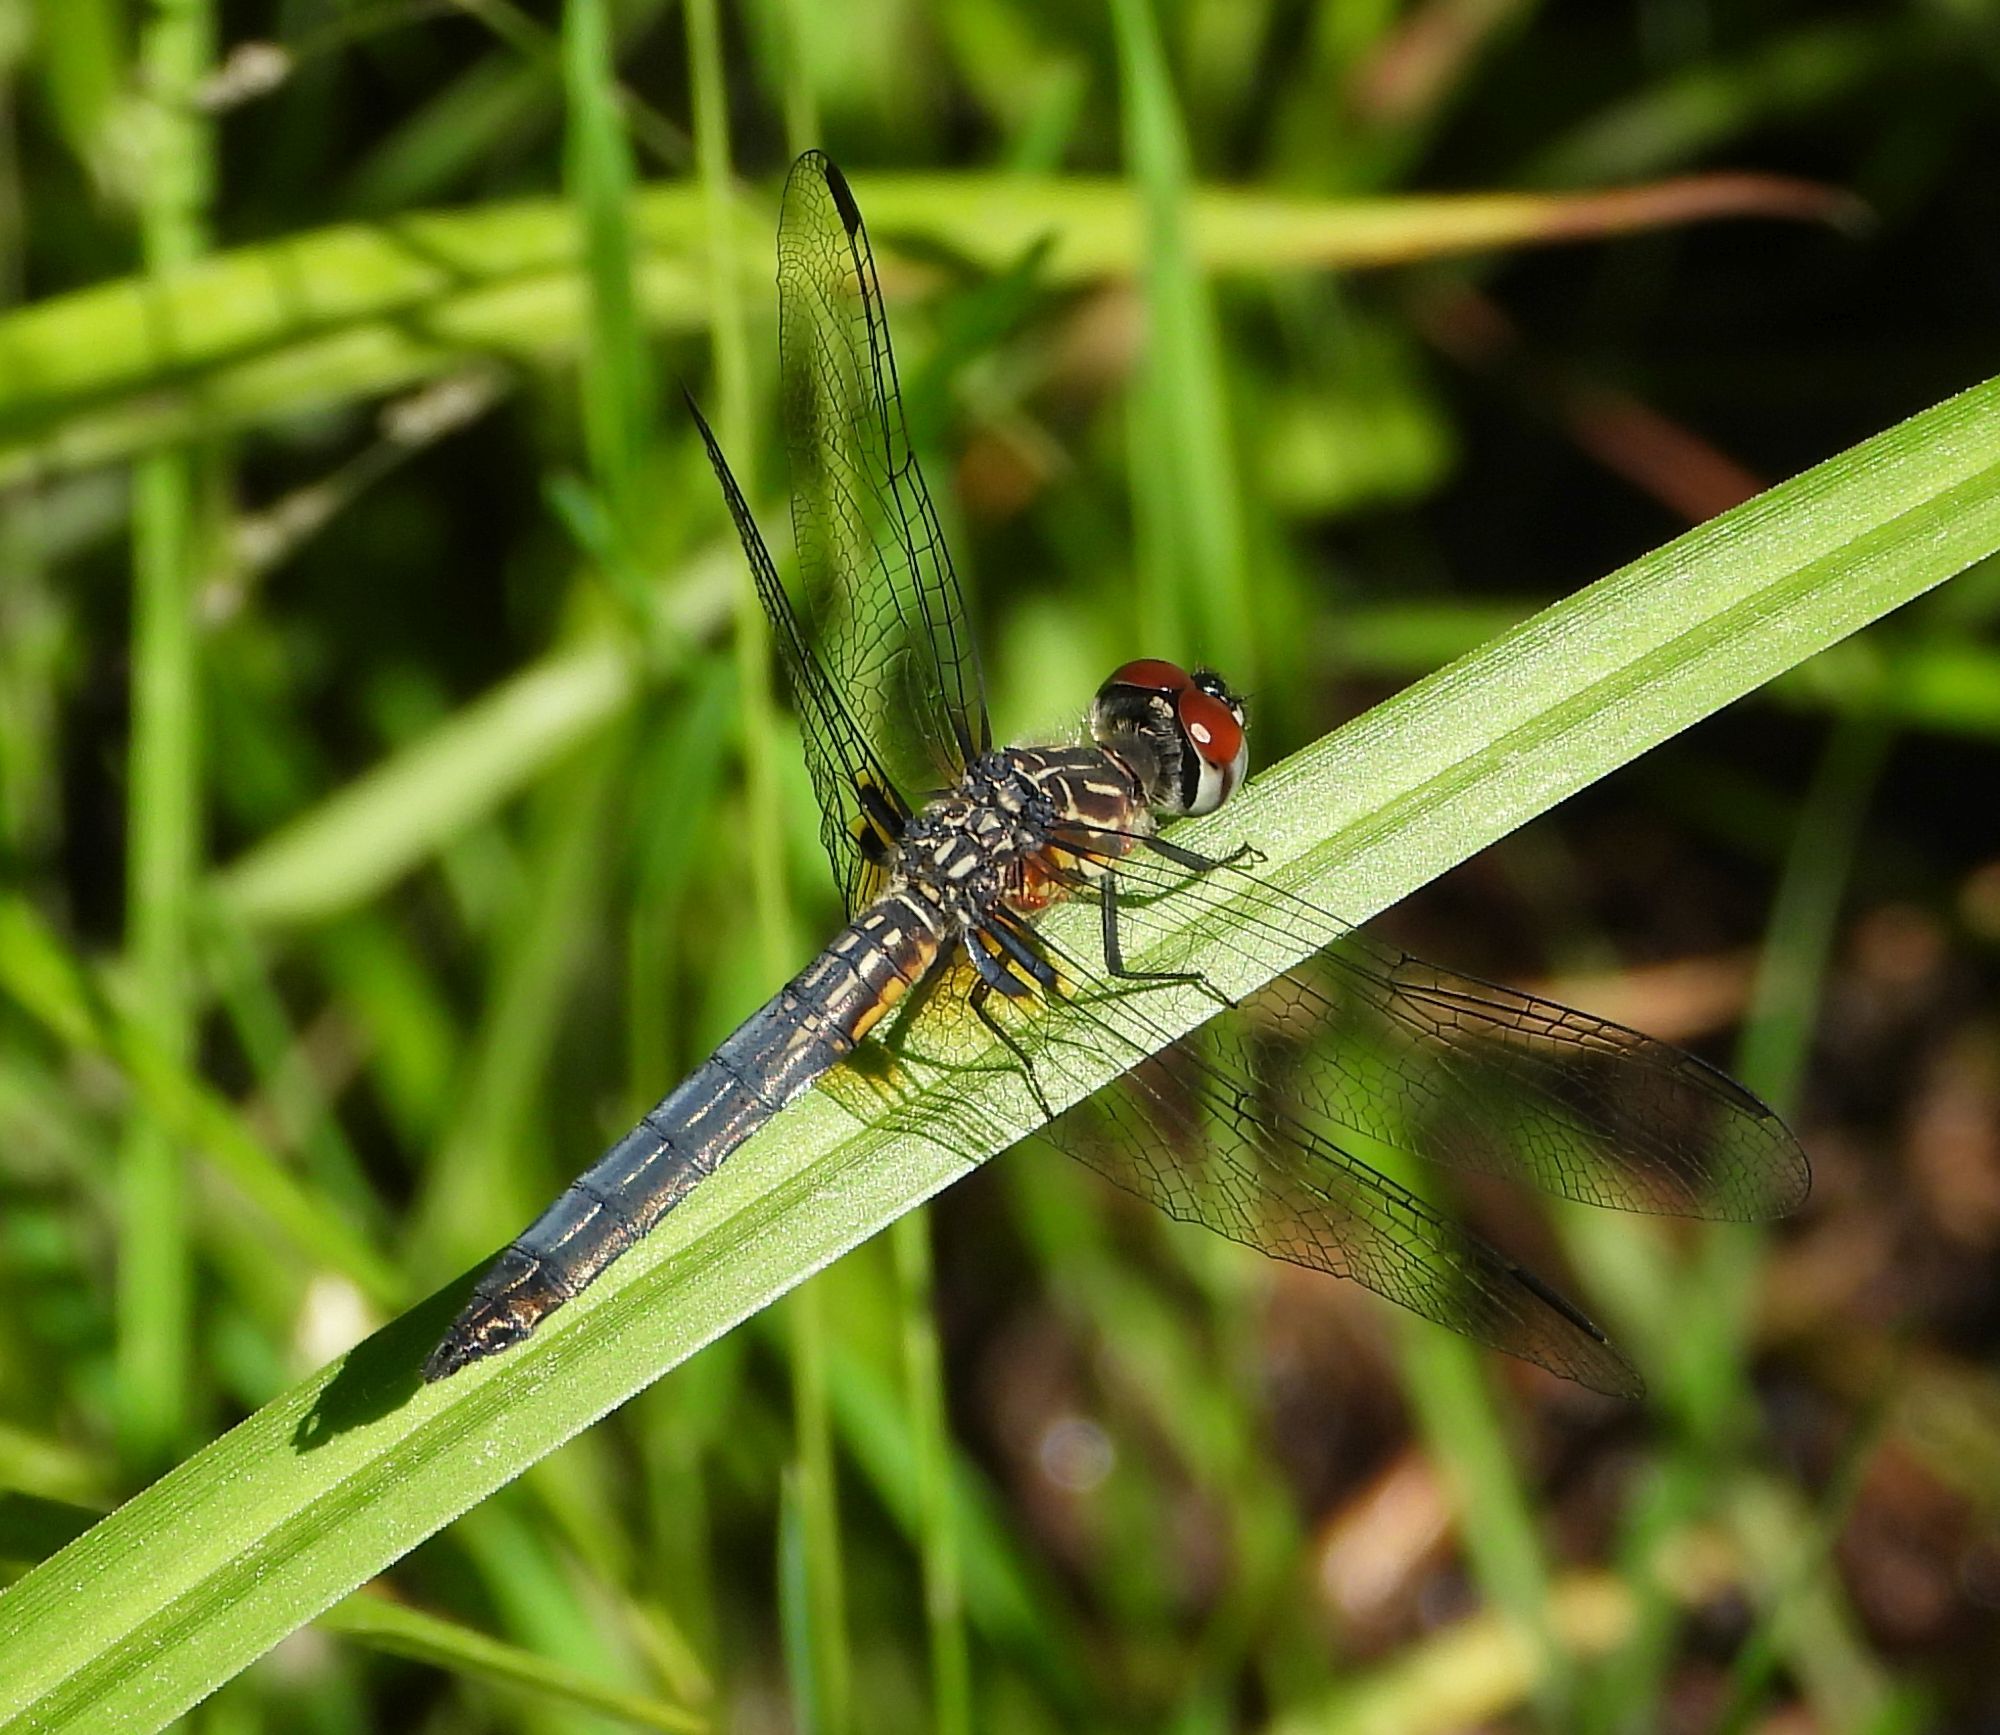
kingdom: Animalia
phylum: Arthropoda
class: Insecta
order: Odonata
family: Libellulidae
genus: Pachydiplax
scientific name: Pachydiplax longipennis
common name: Blue dasher
